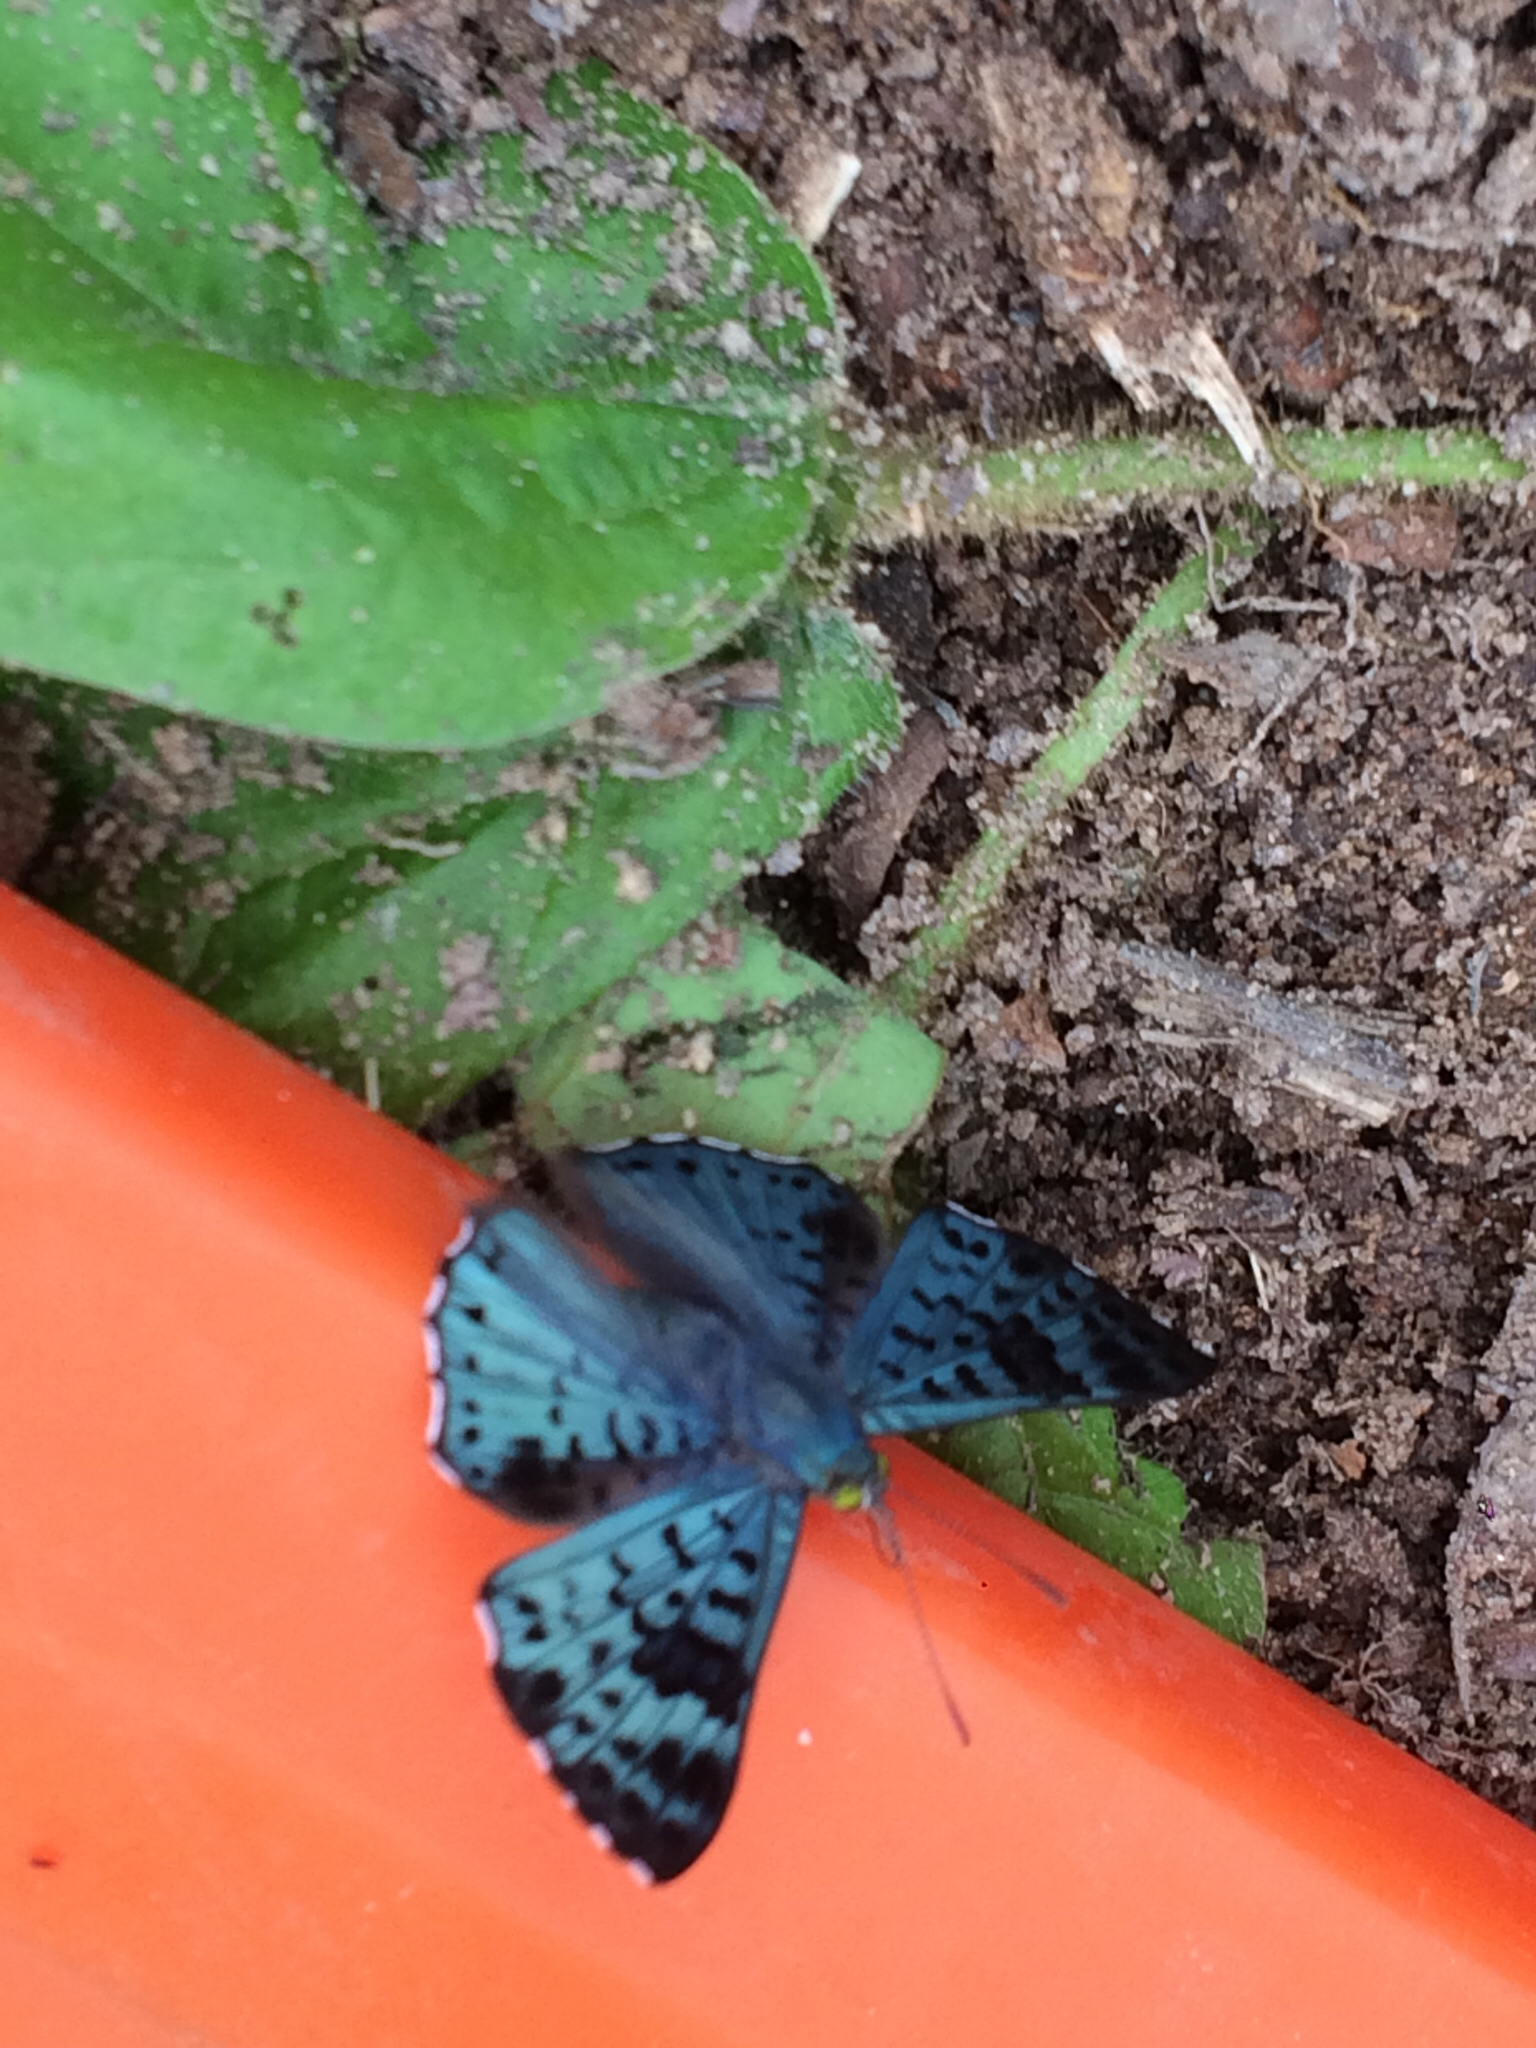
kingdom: Animalia
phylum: Arthropoda
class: Insecta
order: Lepidoptera
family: Riodinidae
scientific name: Riodinidae
